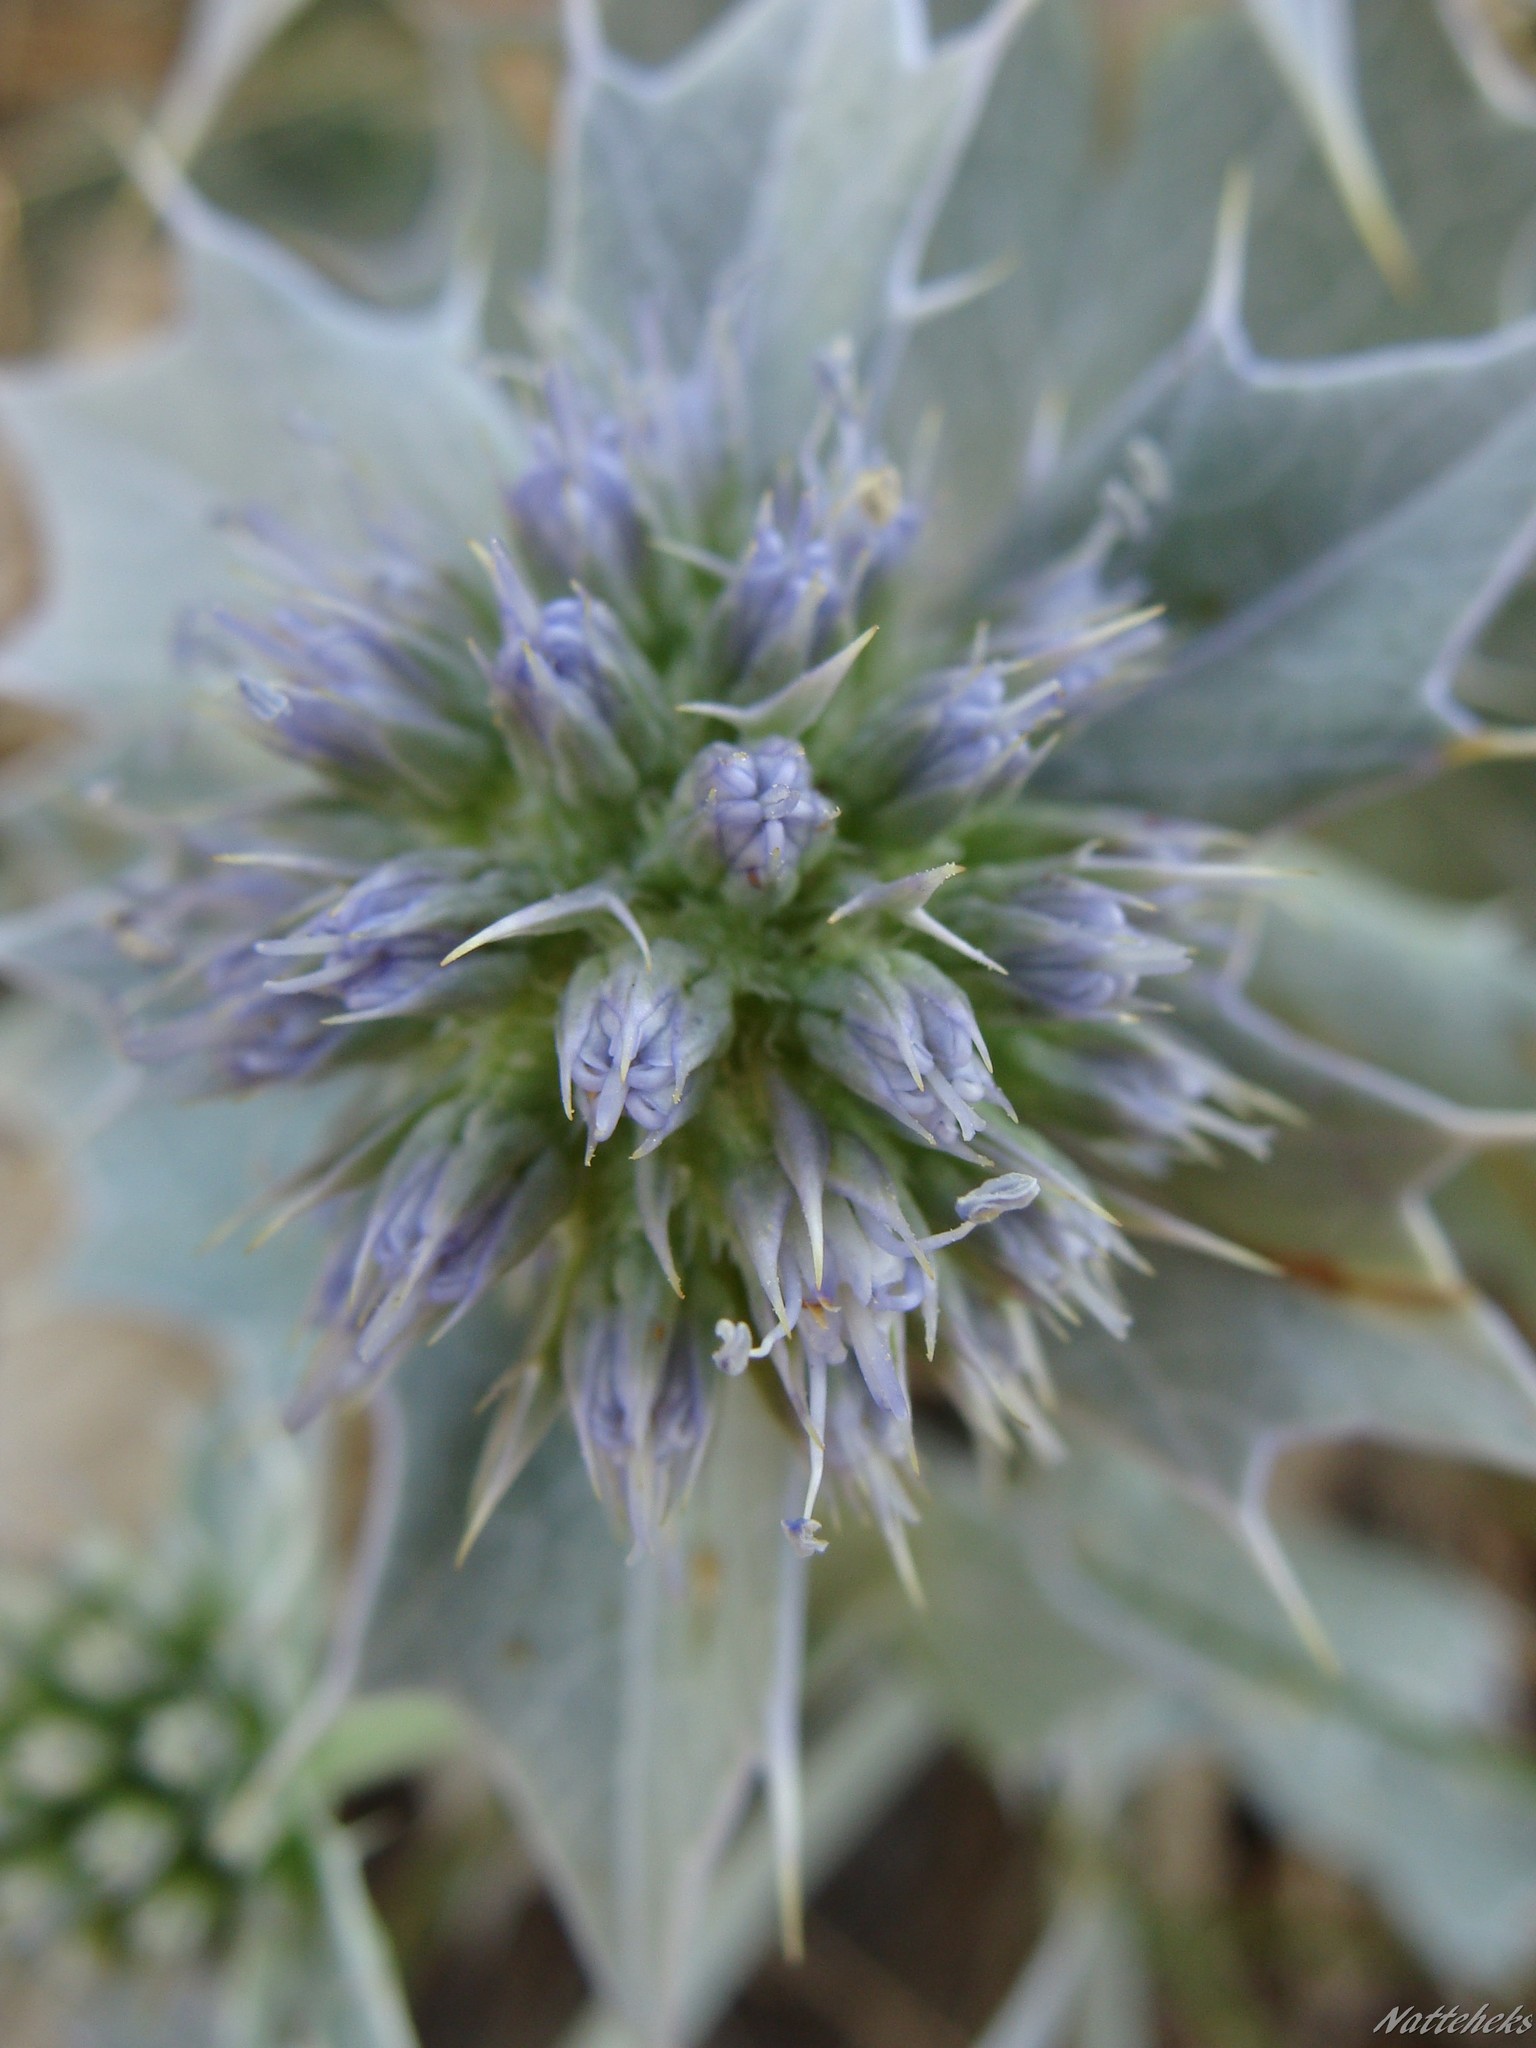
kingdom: Plantae
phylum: Tracheophyta
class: Magnoliopsida
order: Apiales
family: Apiaceae
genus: Eryngium
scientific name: Eryngium maritimum
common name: Sea-holly
